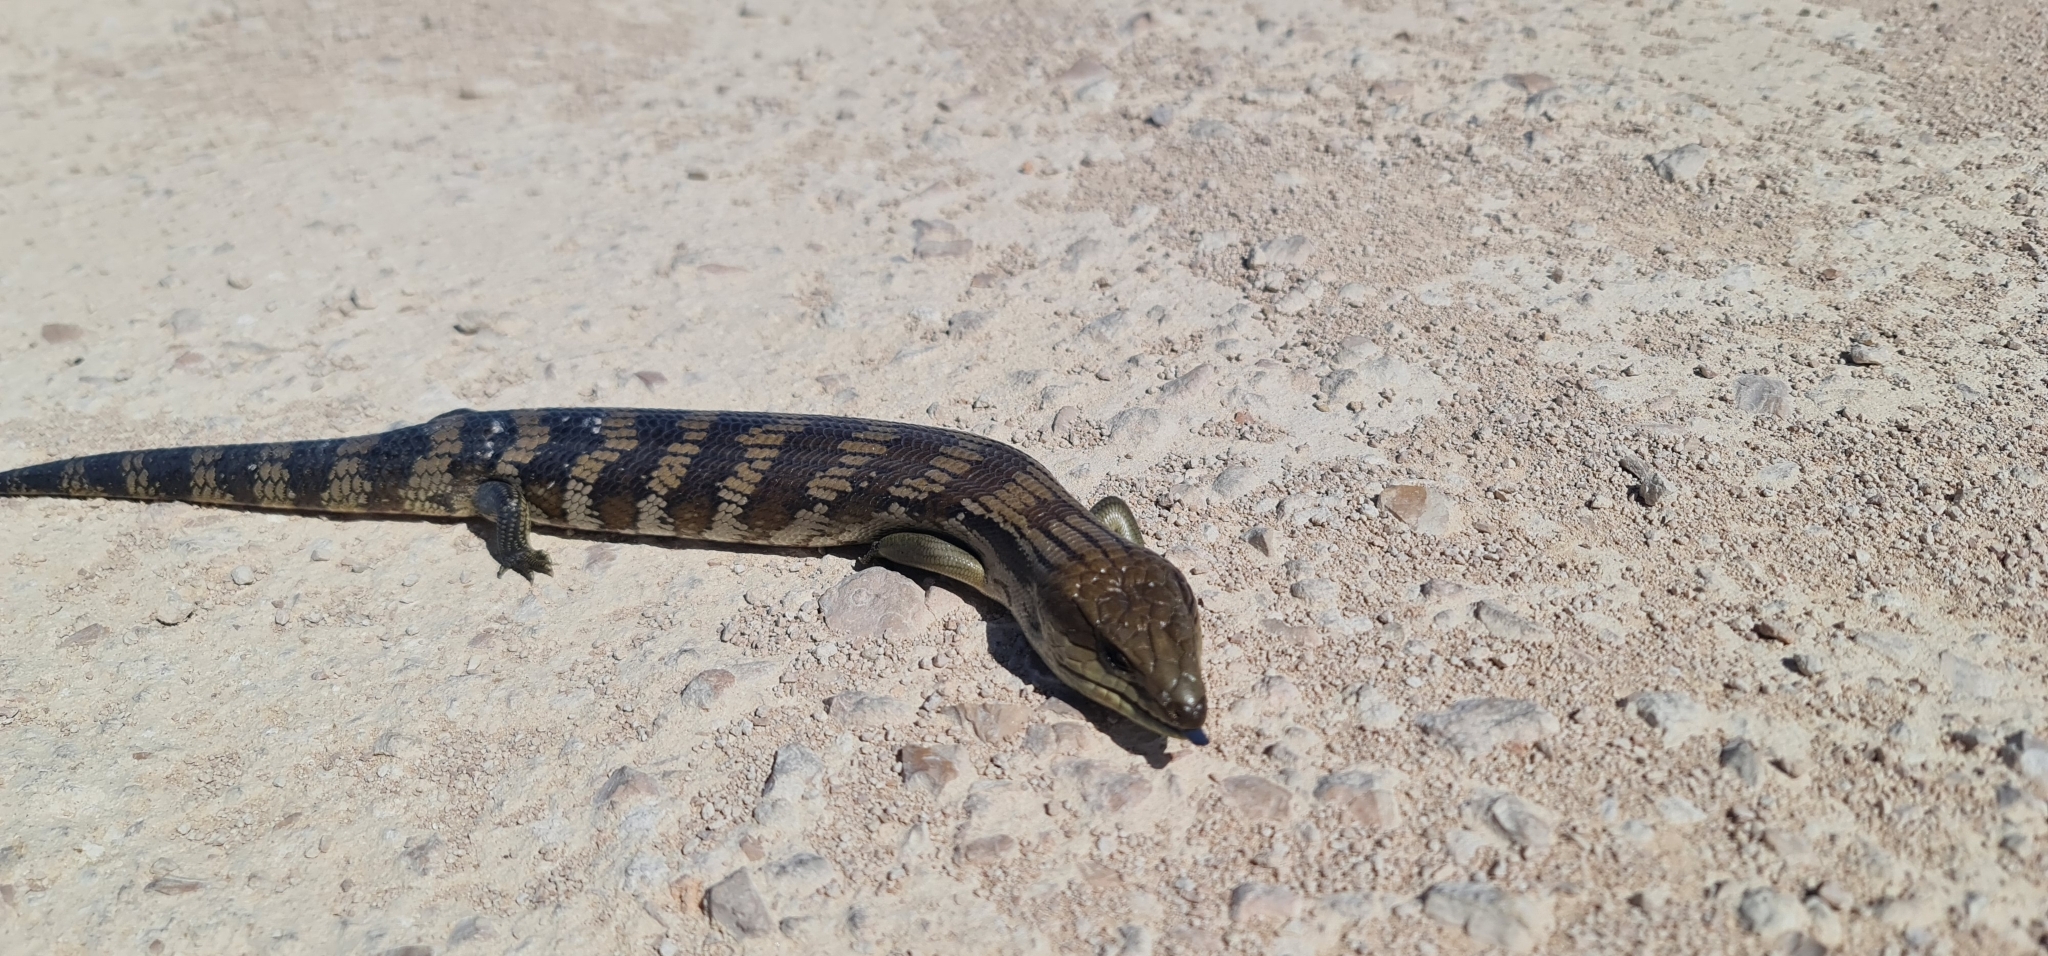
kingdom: Animalia
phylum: Chordata
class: Squamata
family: Scincidae
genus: Tiliqua
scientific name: Tiliqua scincoides
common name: Common bluetongue
